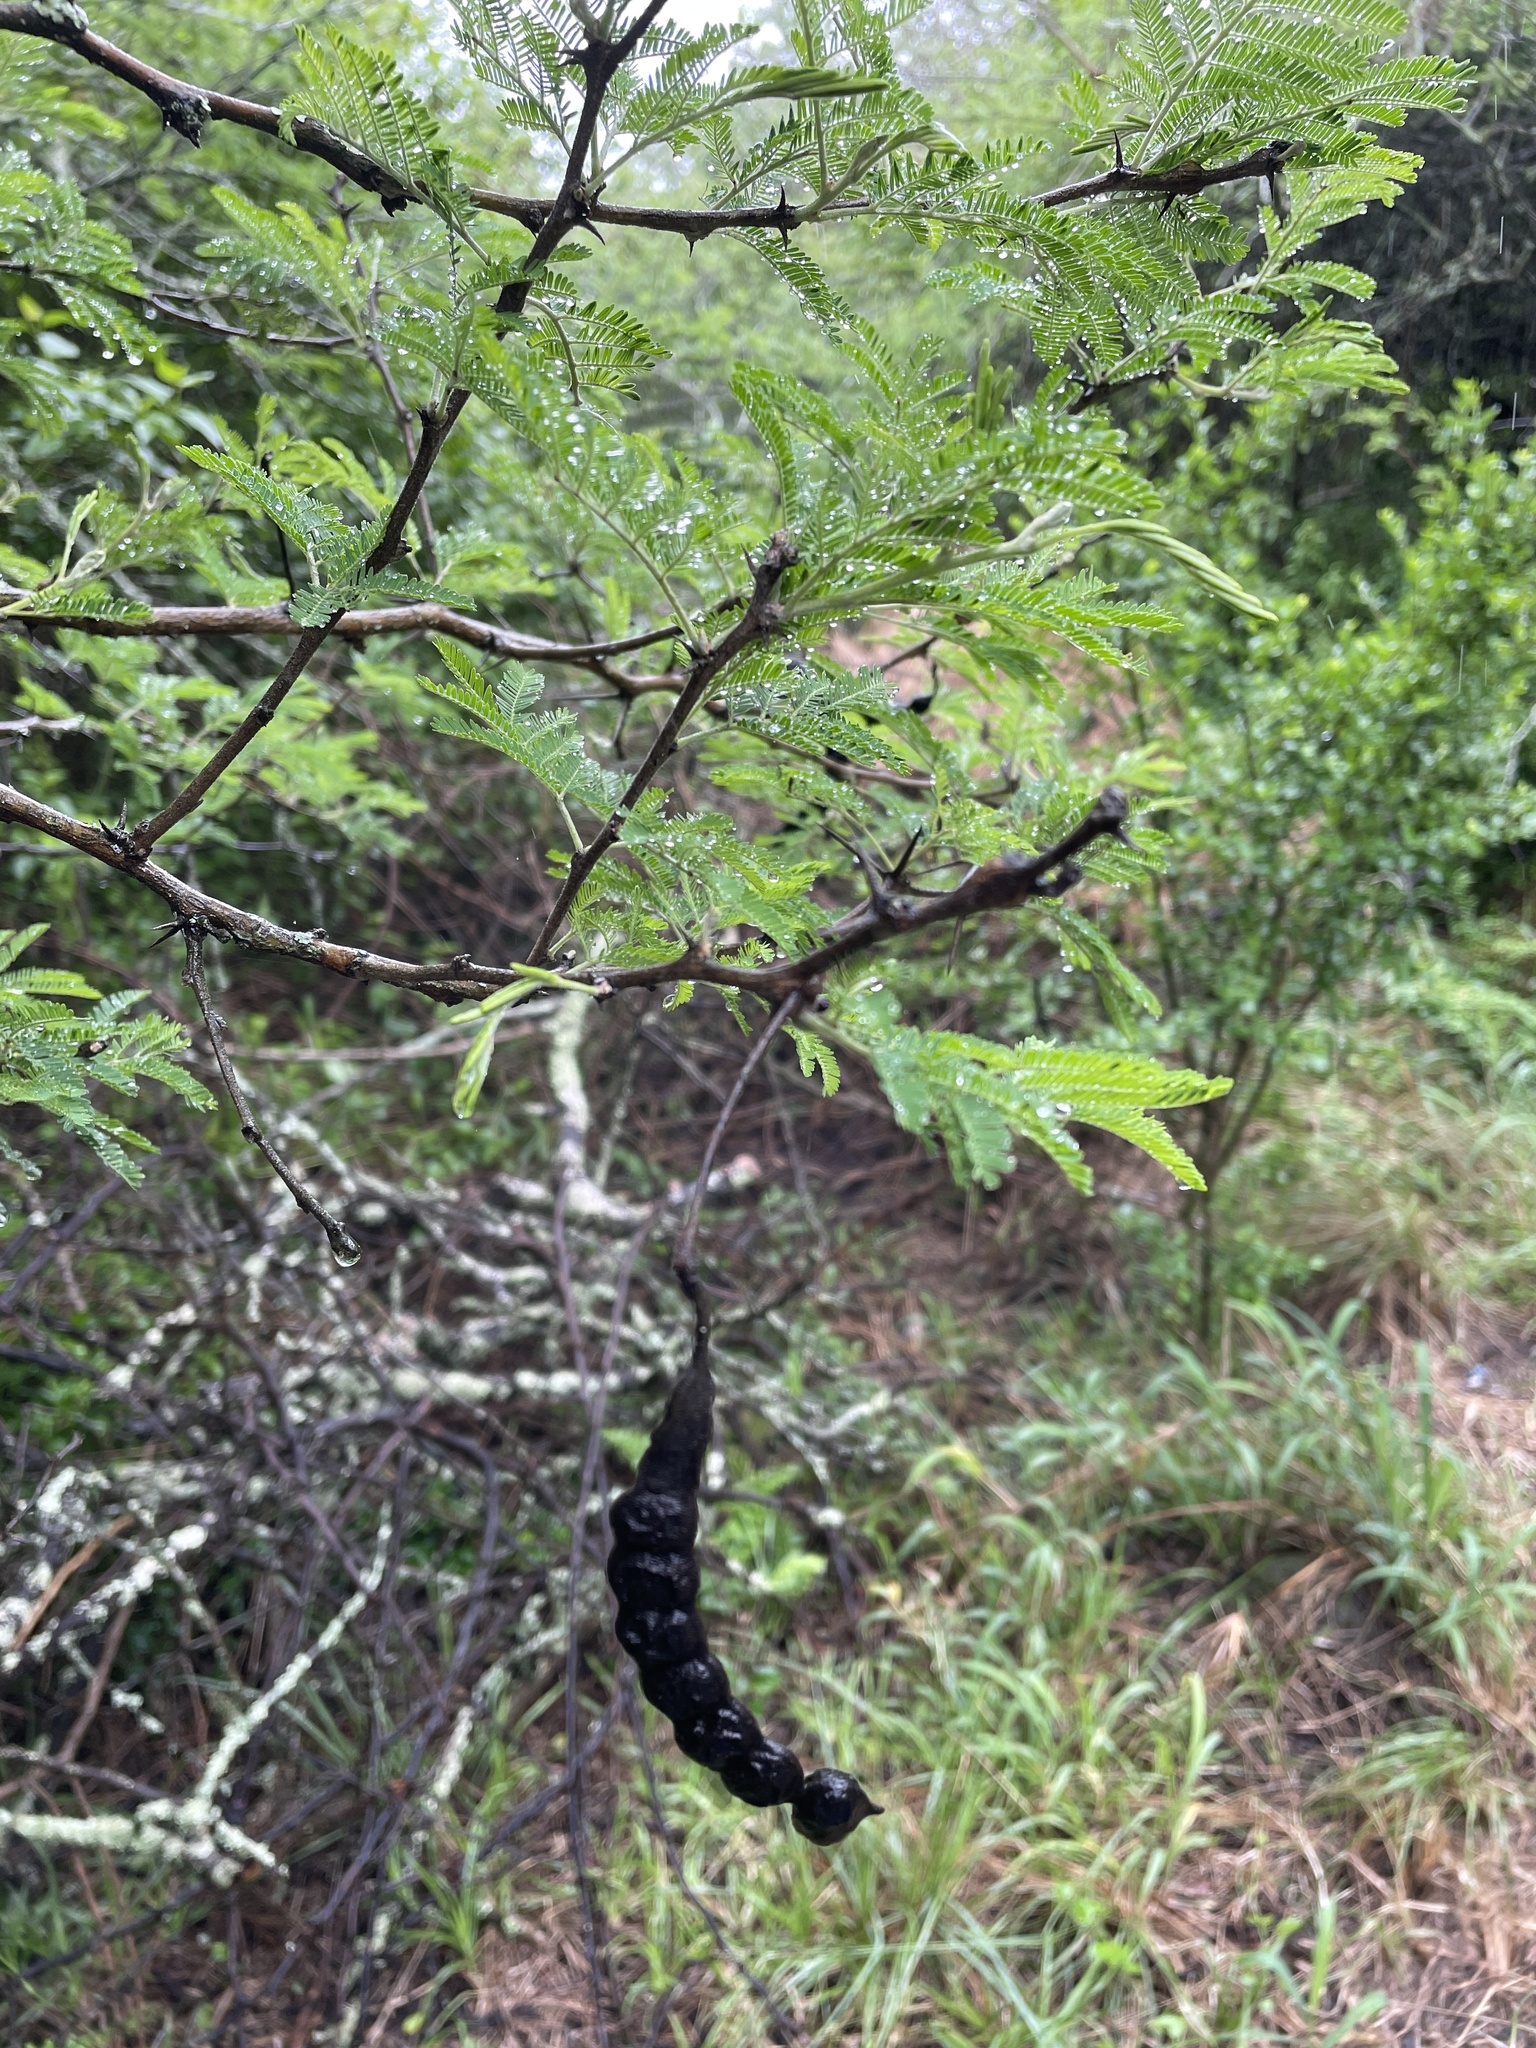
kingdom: Plantae
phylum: Tracheophyta
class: Magnoliopsida
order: Fabales
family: Fabaceae
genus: Vachellia
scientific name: Vachellia nilotica
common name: Arabic gumtree
